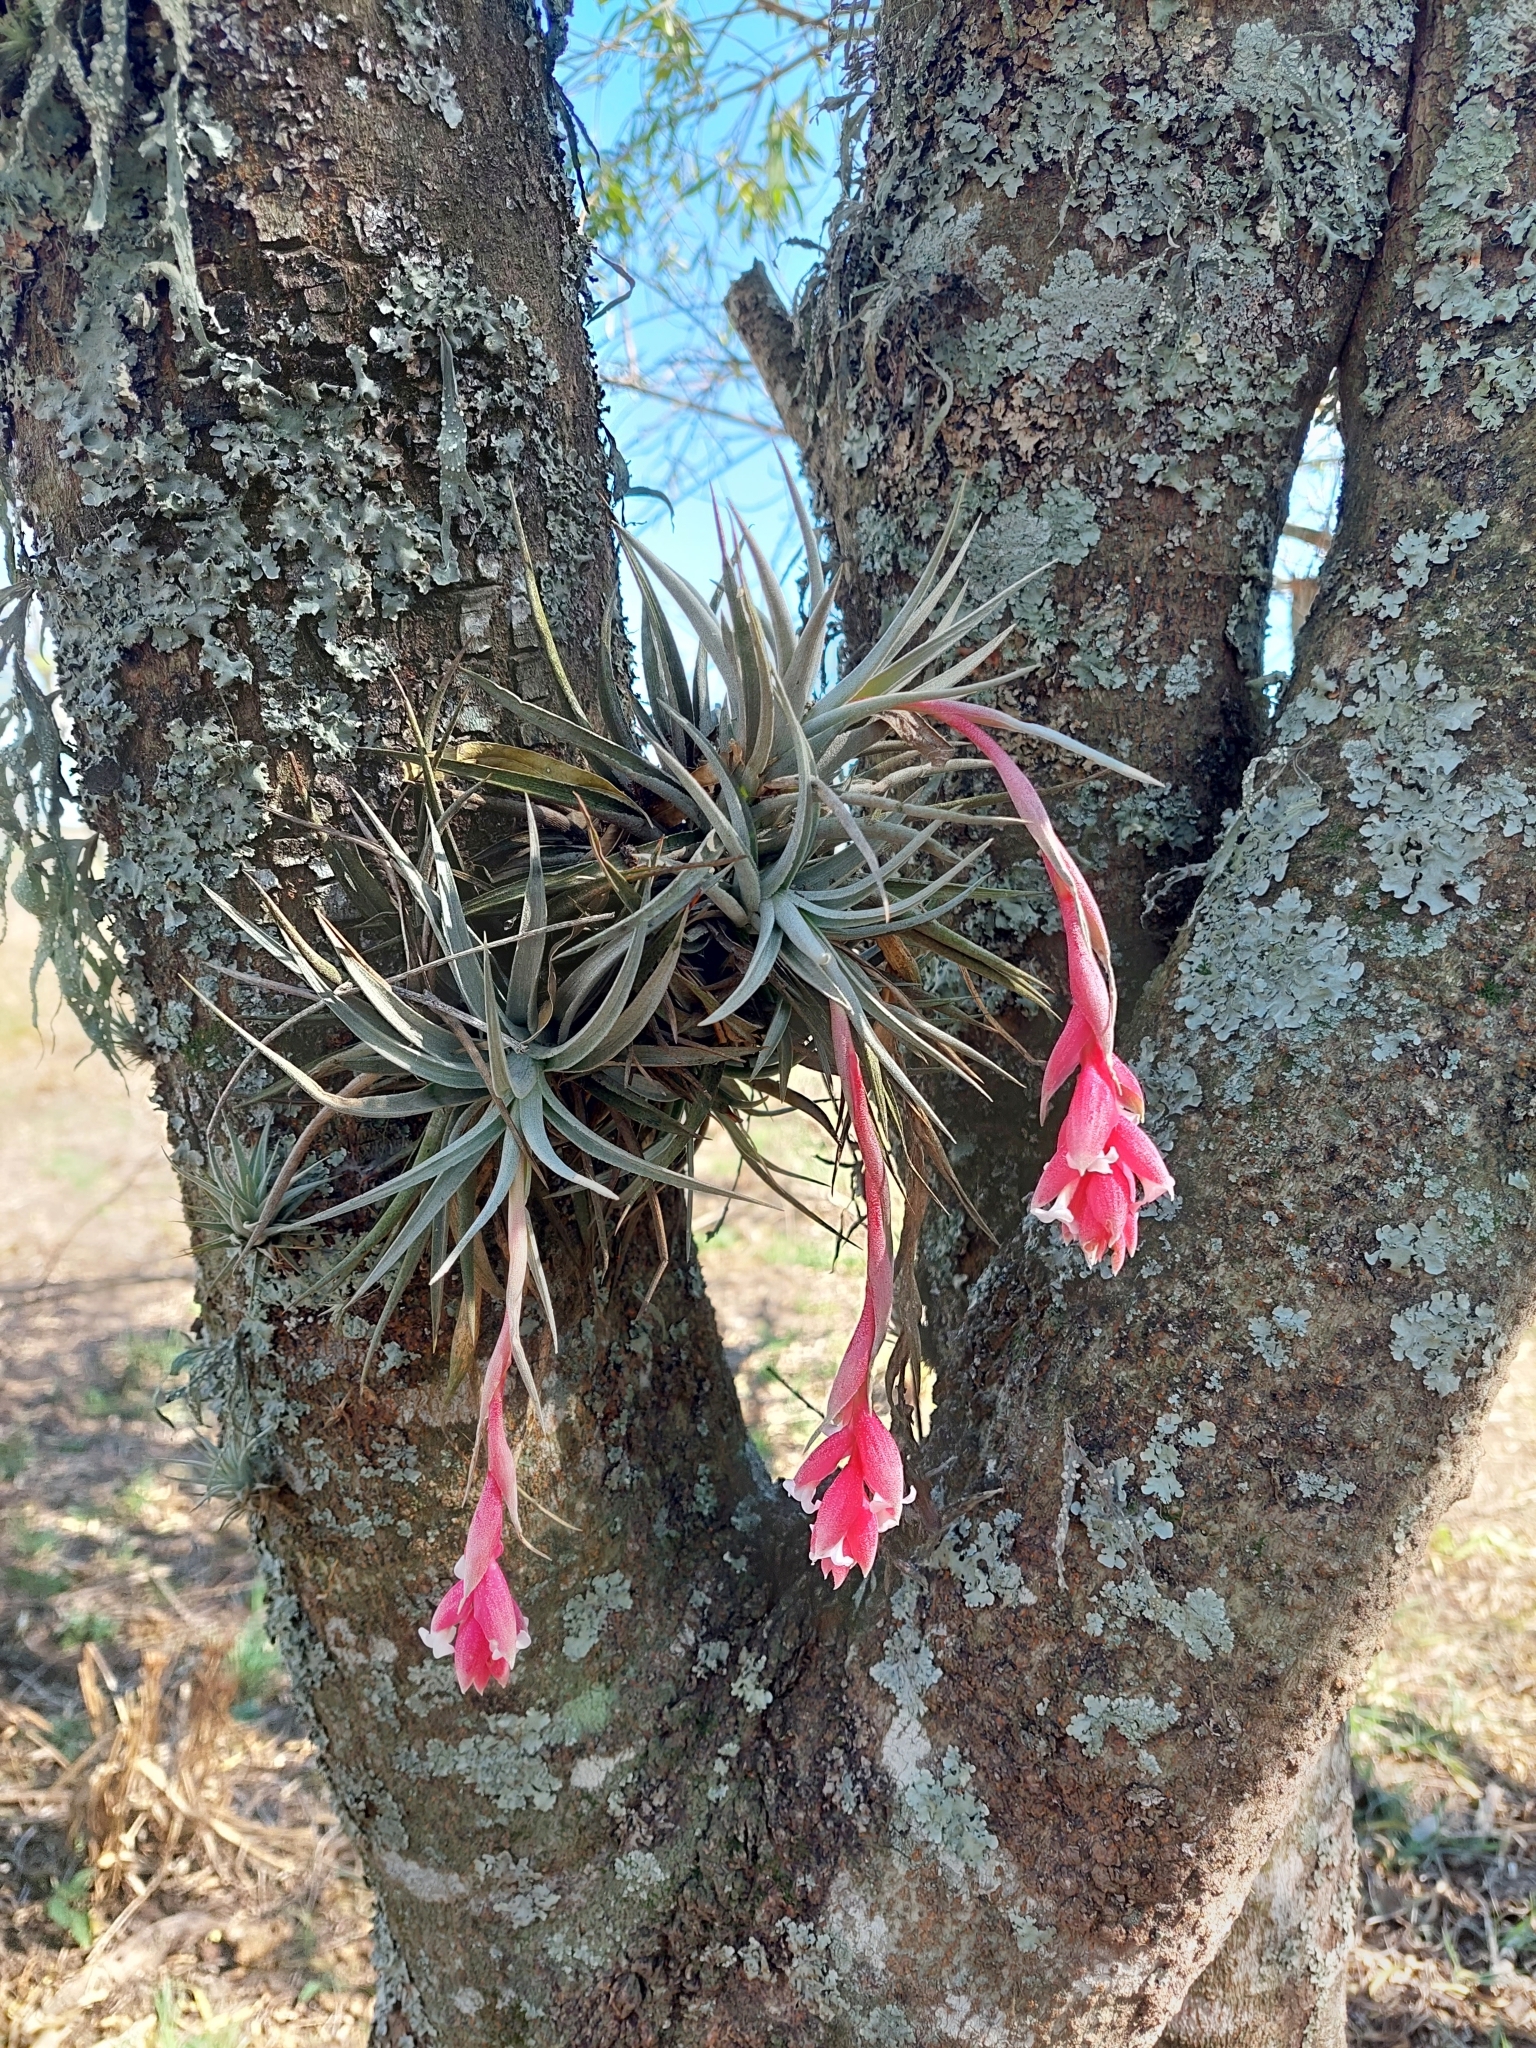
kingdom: Plantae
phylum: Tracheophyta
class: Liliopsida
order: Poales
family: Bromeliaceae
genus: Tillandsia
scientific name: Tillandsia recurvifolia
